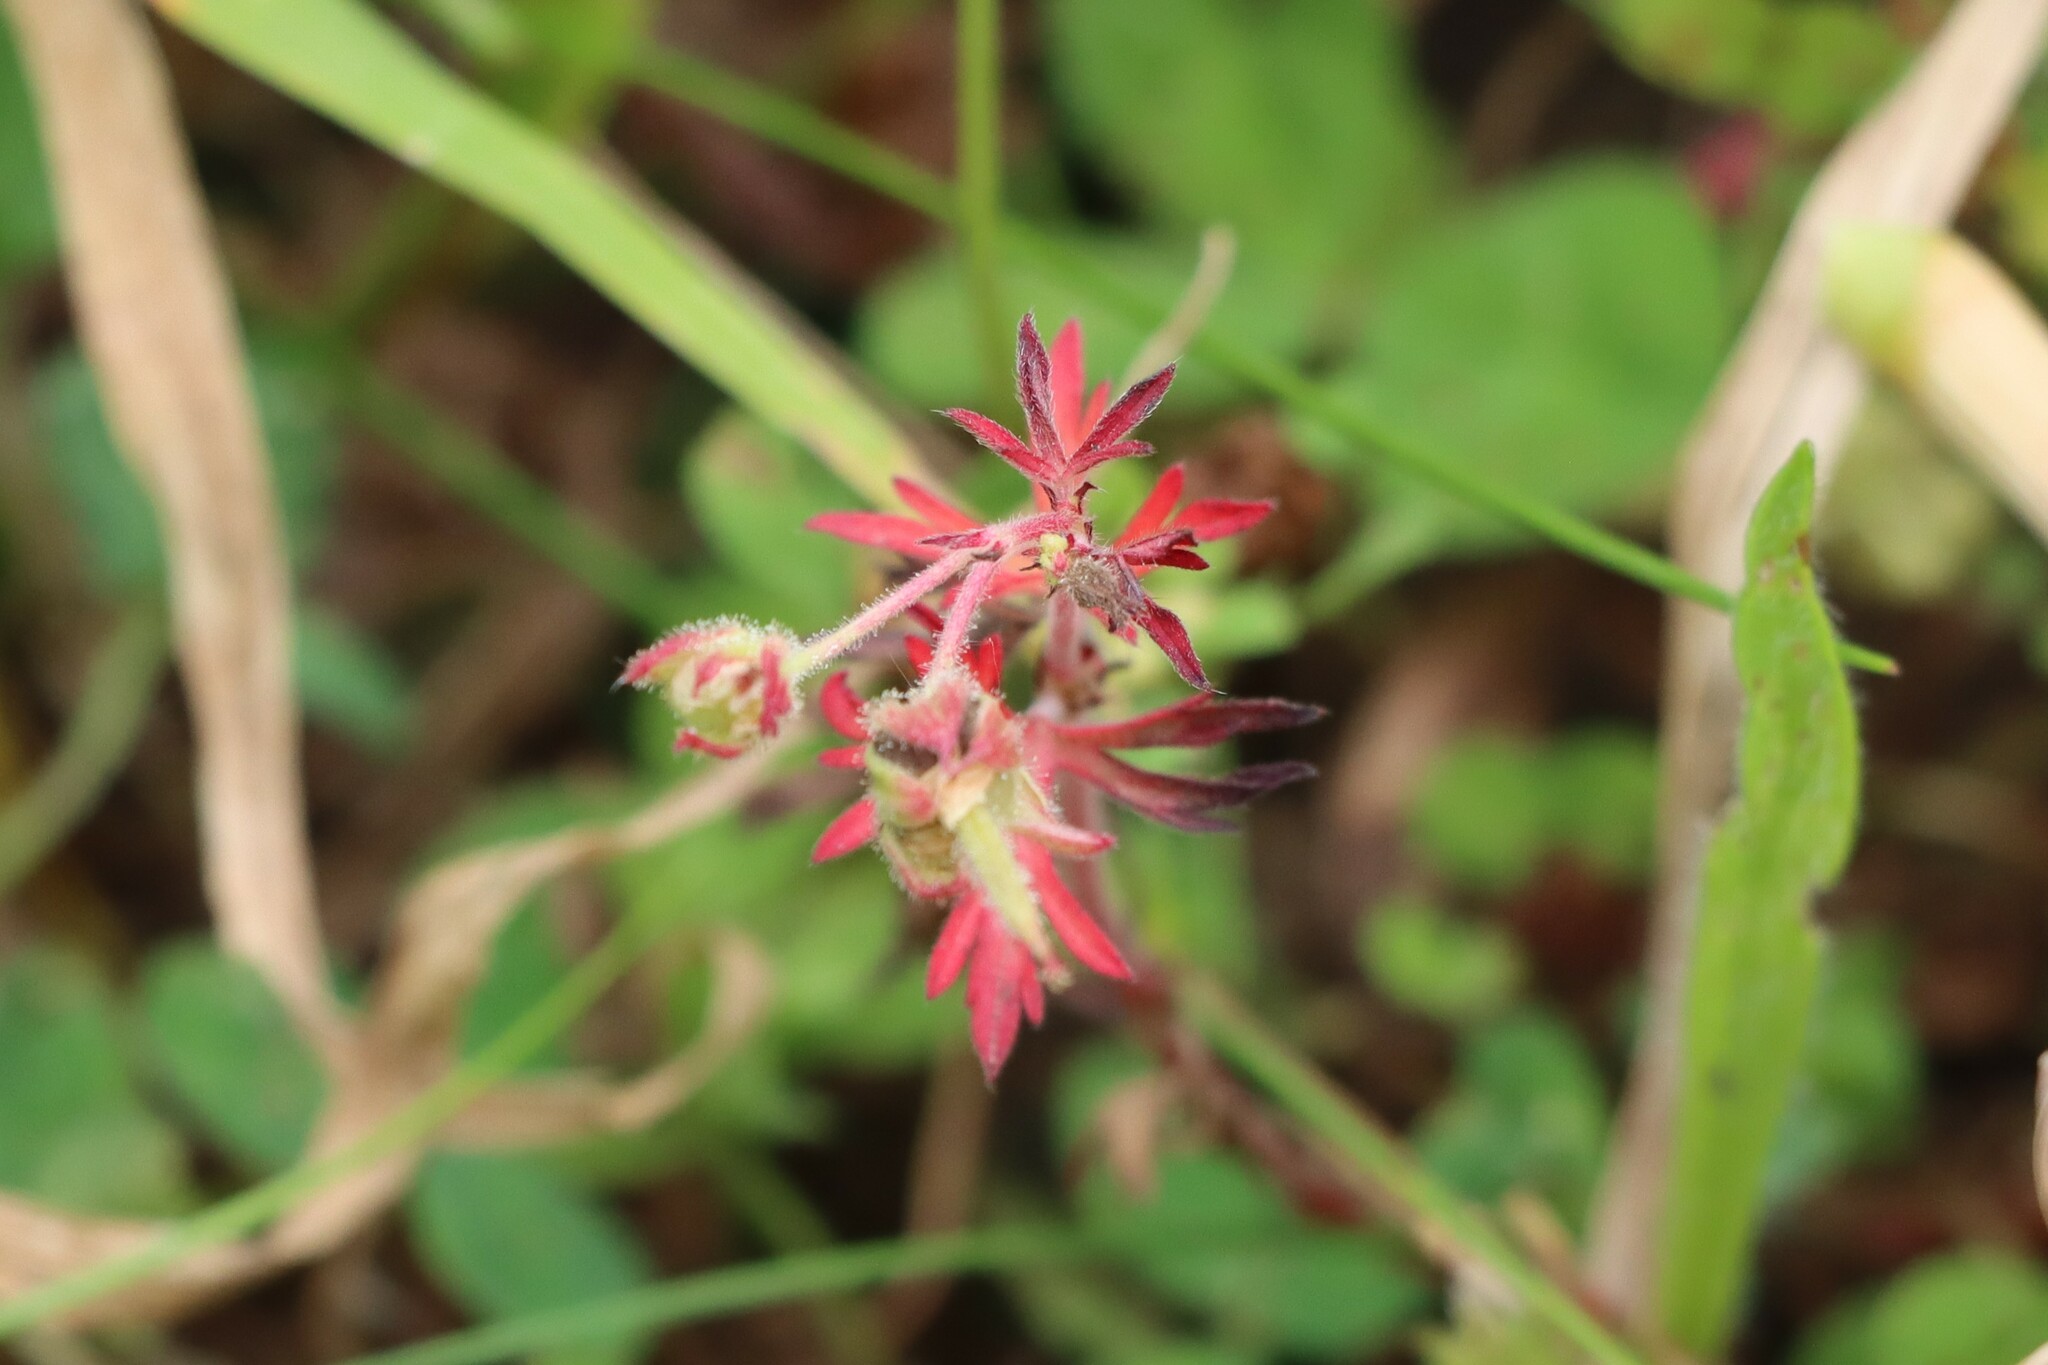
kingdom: Plantae
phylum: Tracheophyta
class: Magnoliopsida
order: Geraniales
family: Geraniaceae
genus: Geranium
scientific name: Geranium dissectum
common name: Cut-leaved crane's-bill
